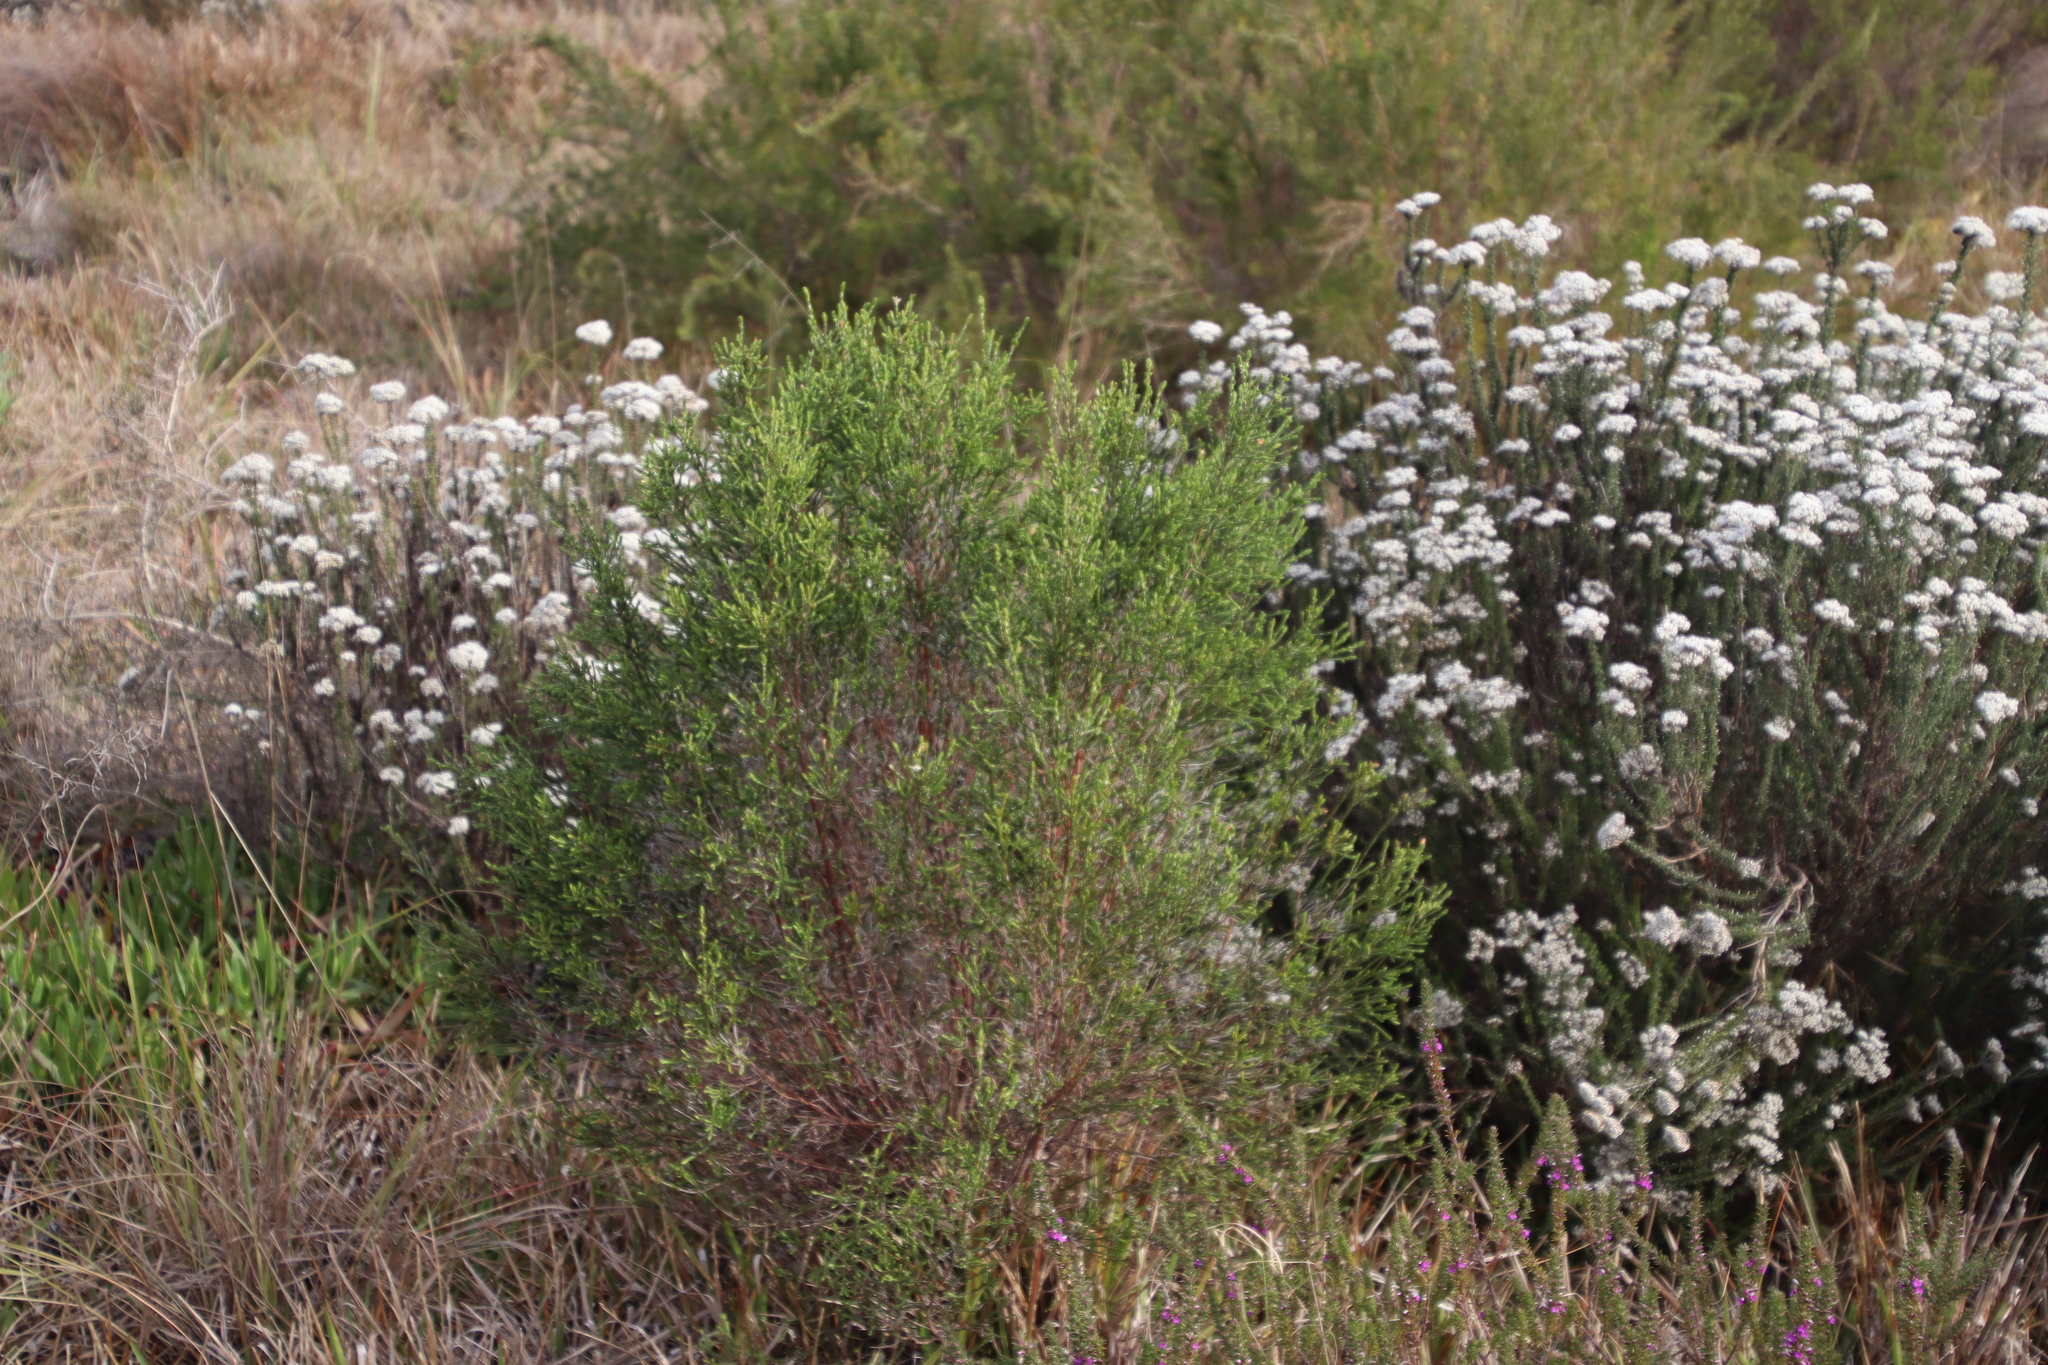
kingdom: Plantae
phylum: Tracheophyta
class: Magnoliopsida
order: Malvales
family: Thymelaeaceae
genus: Passerina
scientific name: Passerina corymbosa
